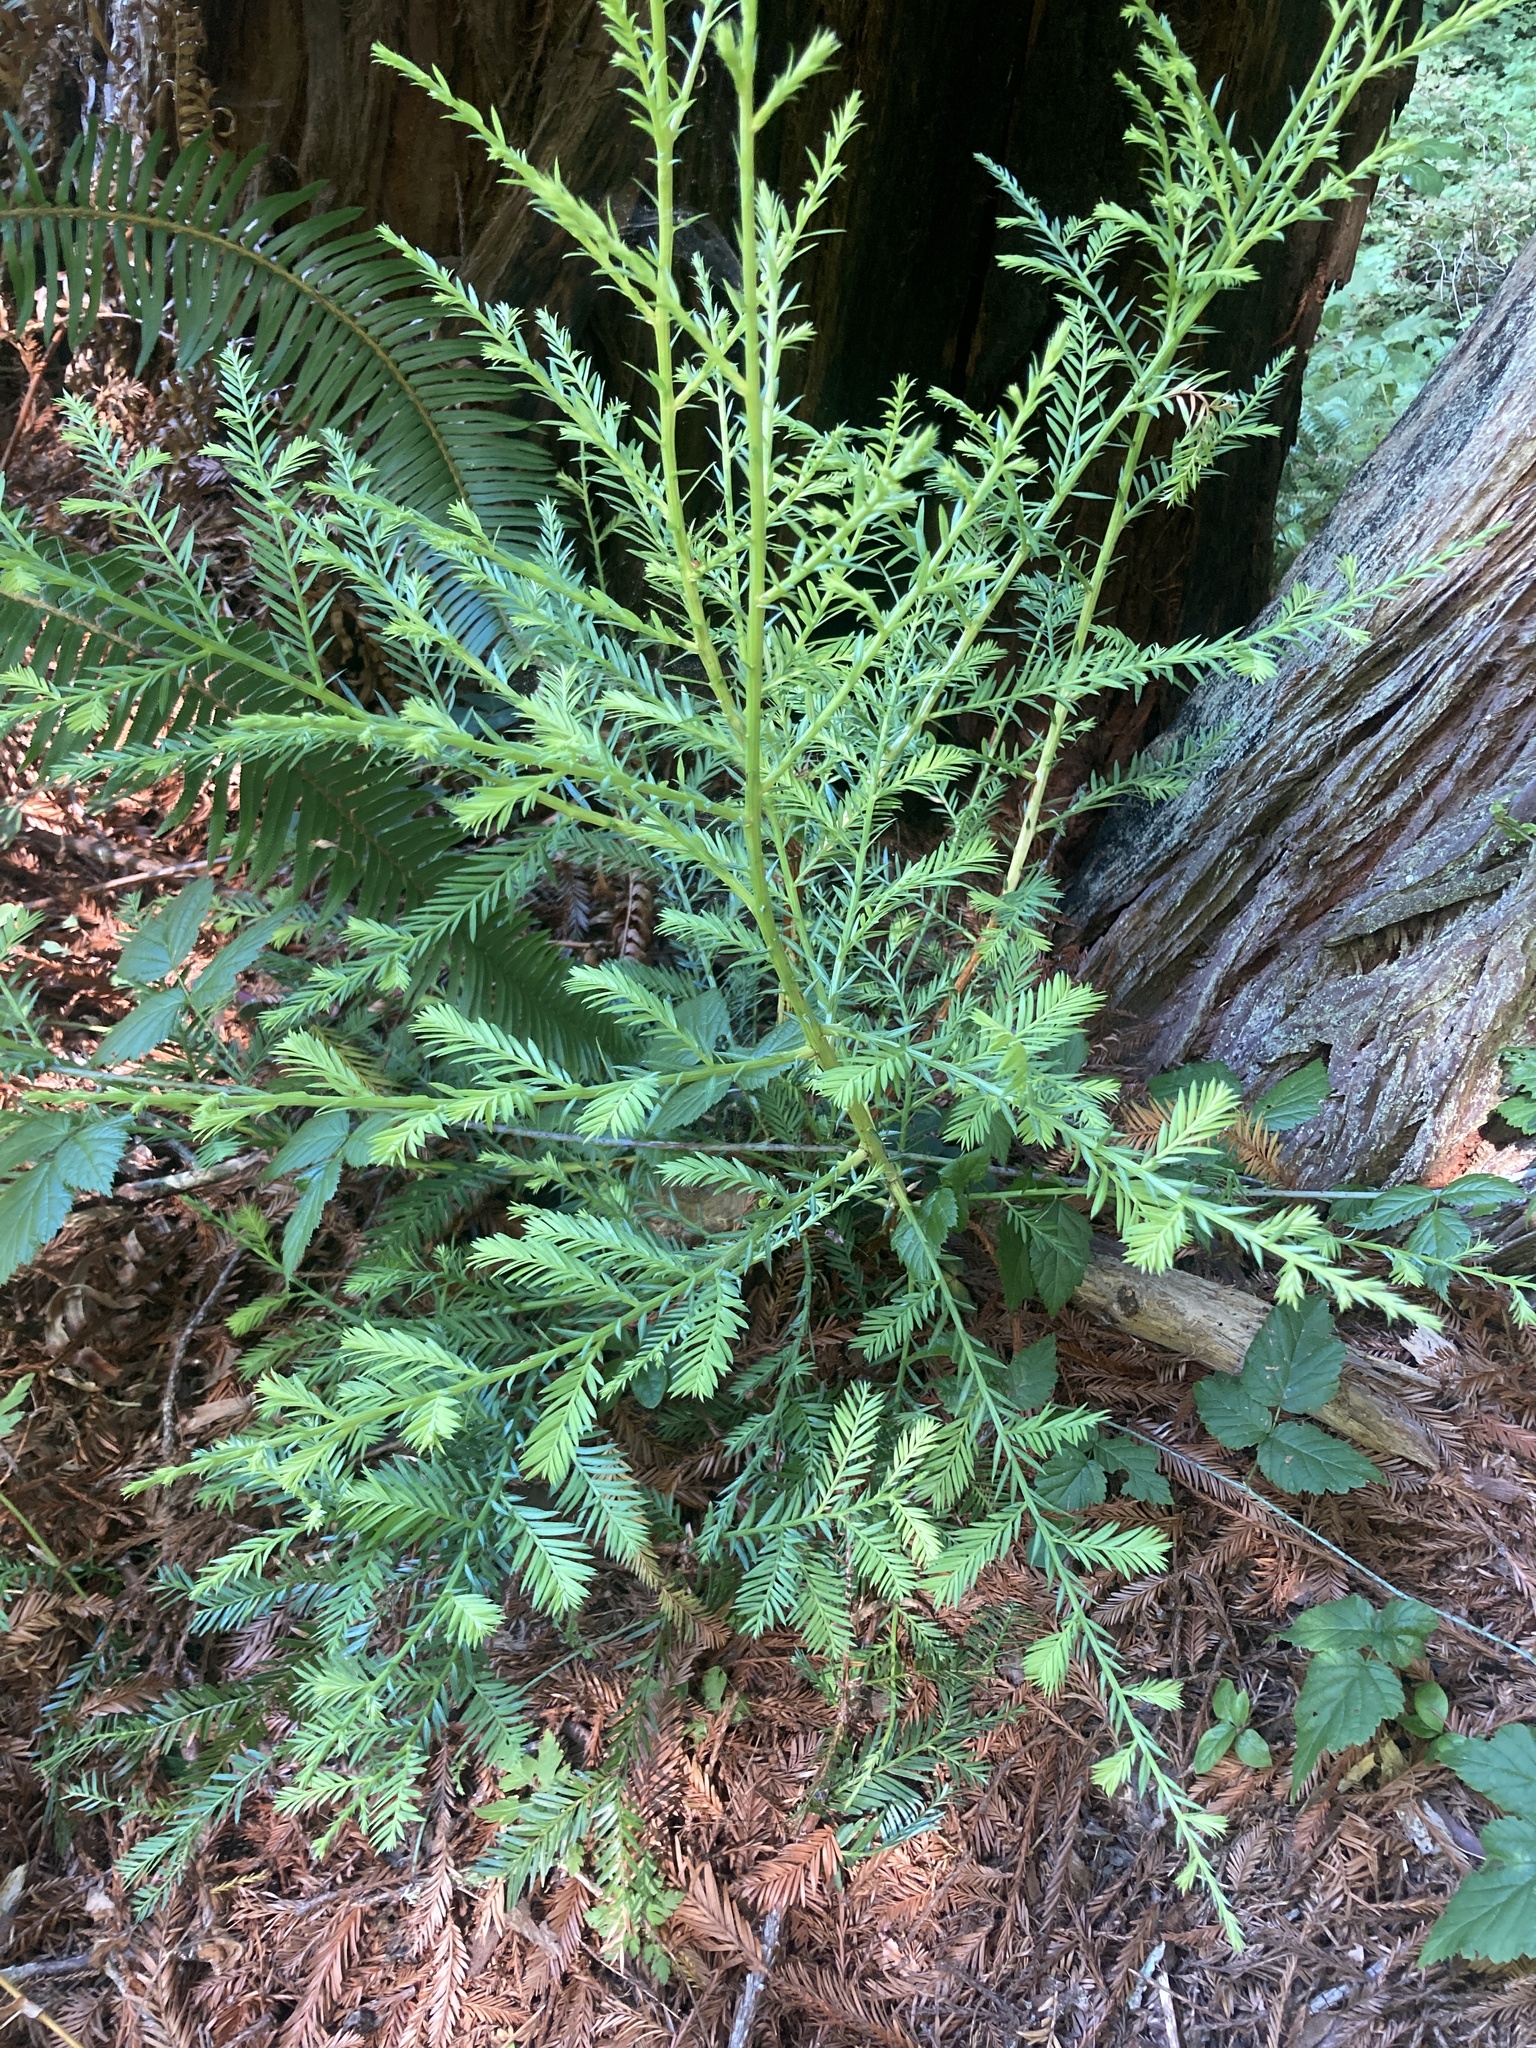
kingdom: Plantae
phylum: Tracheophyta
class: Pinopsida
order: Pinales
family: Cupressaceae
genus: Sequoia
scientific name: Sequoia sempervirens
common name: Coast redwood
